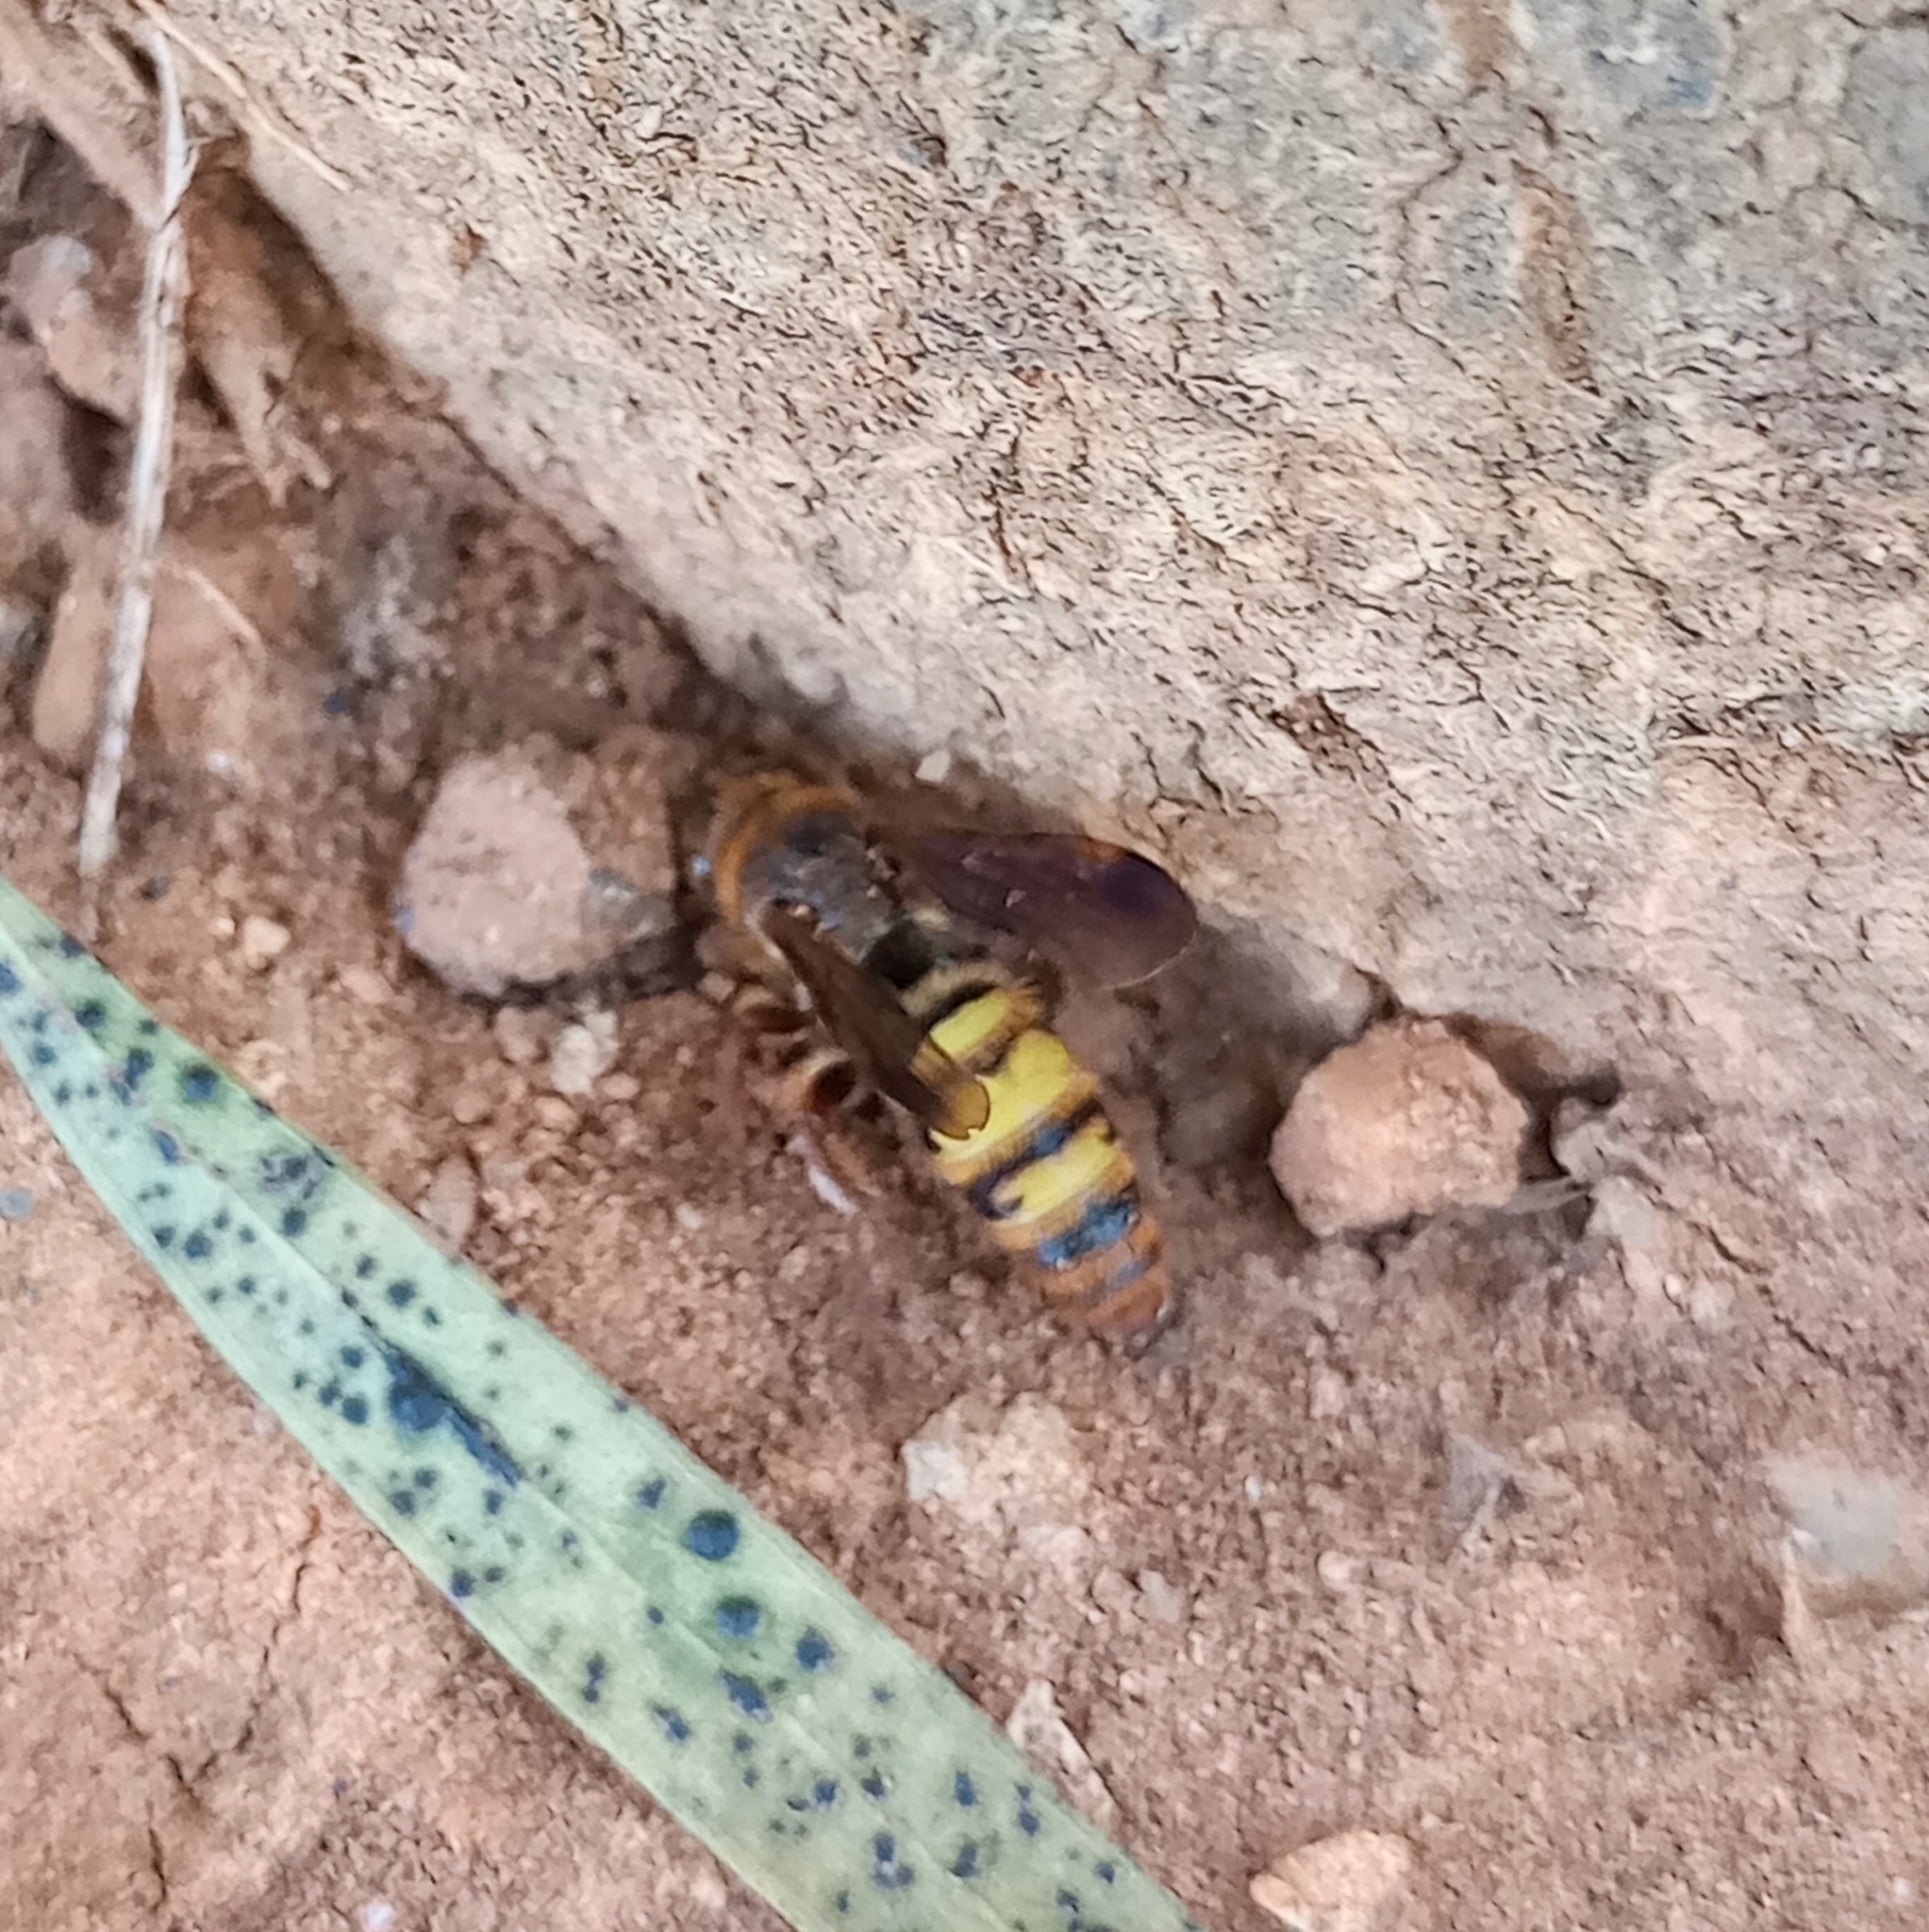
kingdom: Animalia
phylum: Arthropoda
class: Insecta
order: Hymenoptera
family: Scoliidae
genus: Phalerimeris
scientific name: Phalerimeris
